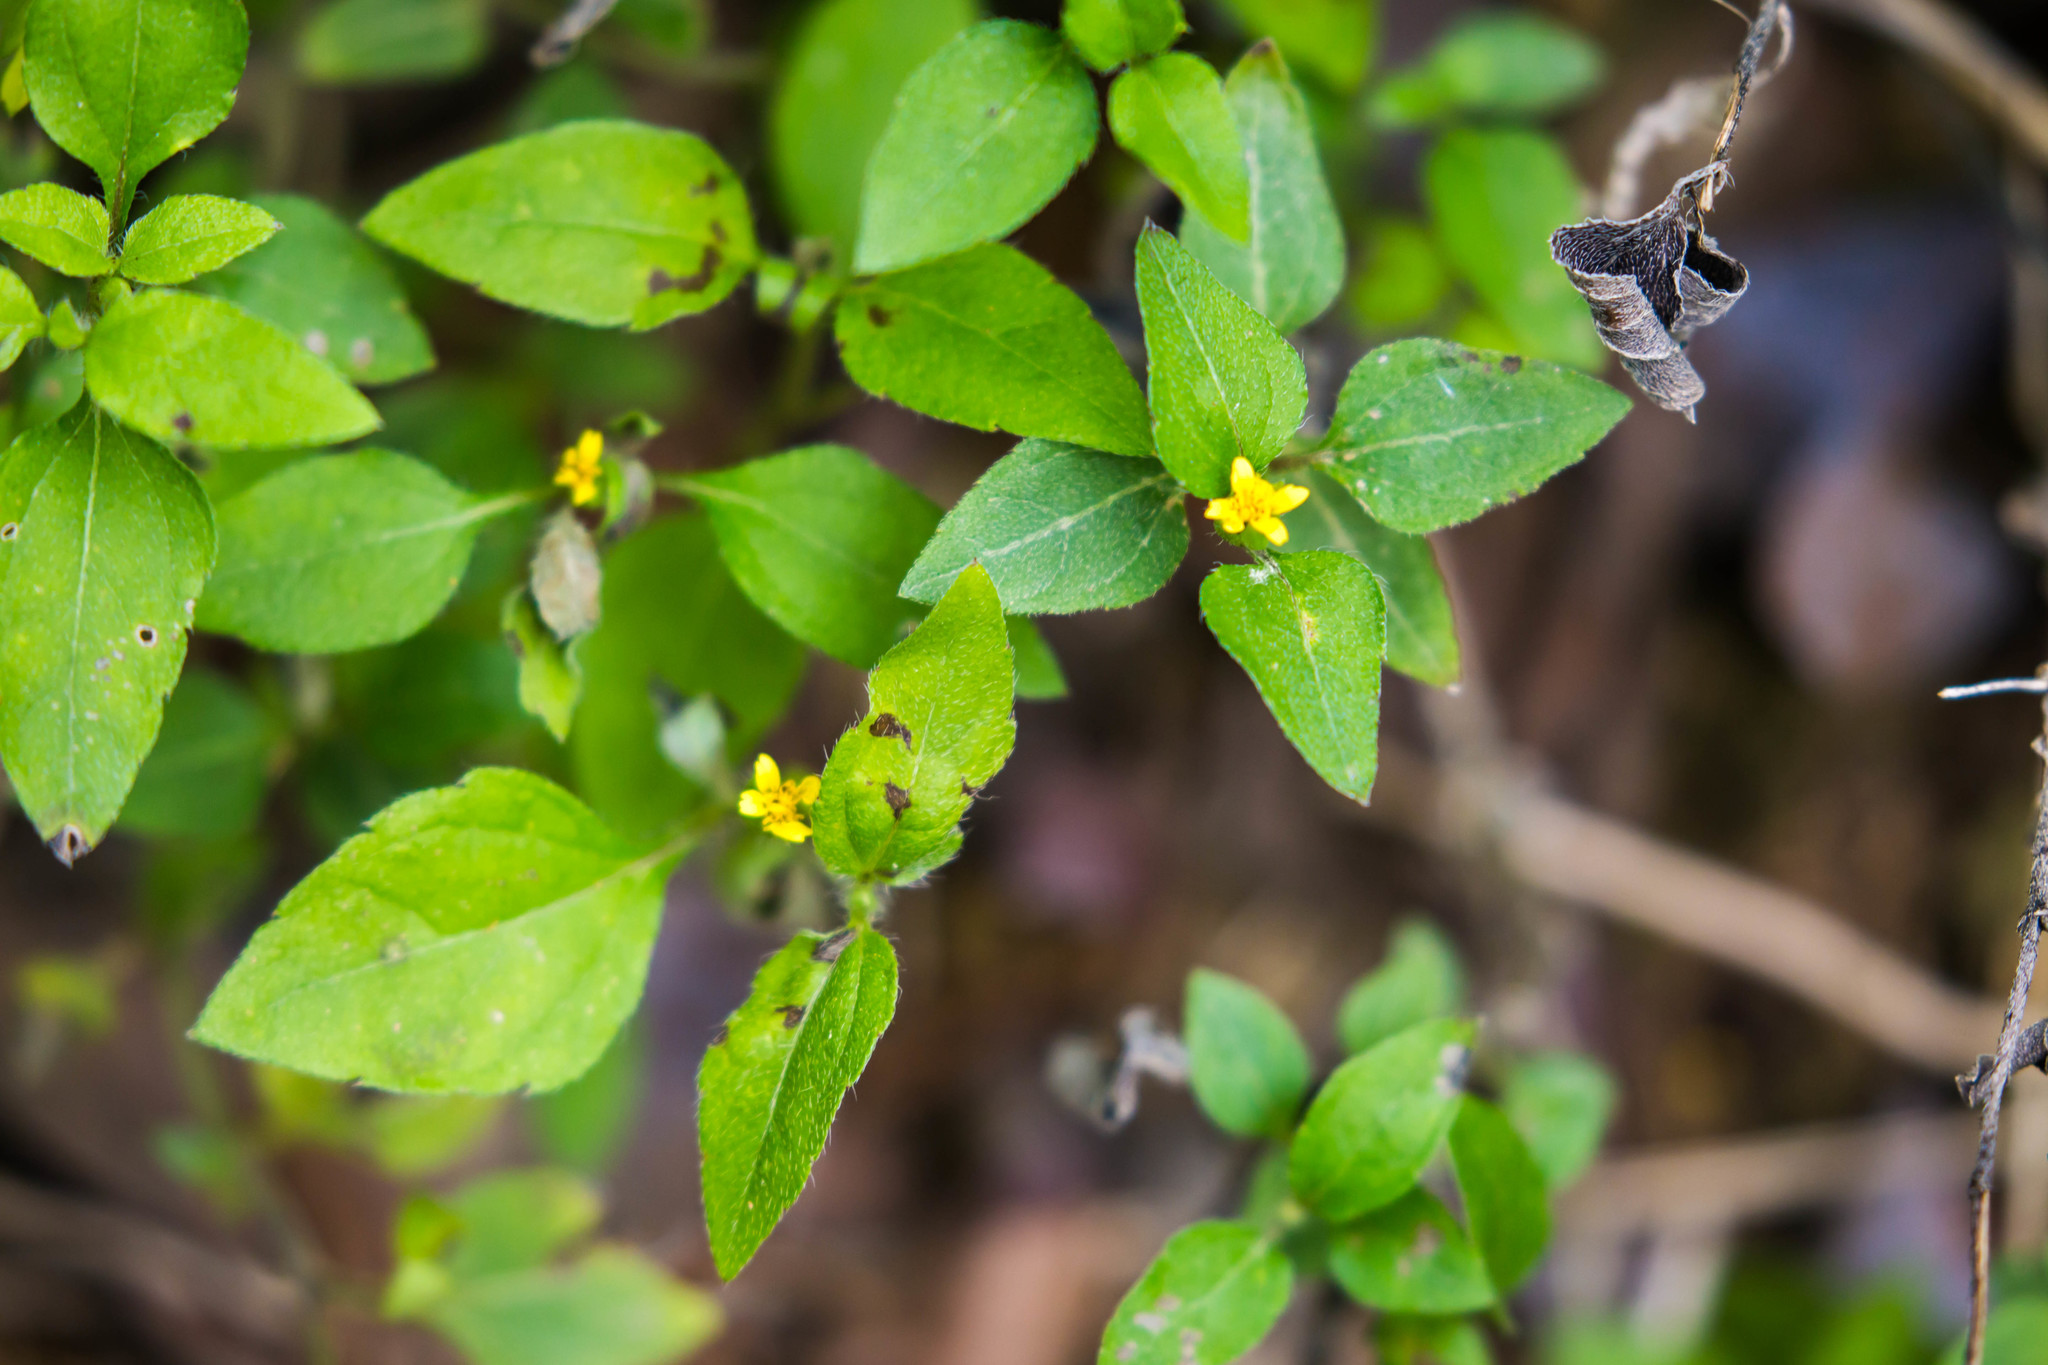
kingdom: Plantae
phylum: Tracheophyta
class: Magnoliopsida
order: Asterales
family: Asteraceae
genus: Calyptocarpus
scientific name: Calyptocarpus vialis
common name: Straggler daisy
